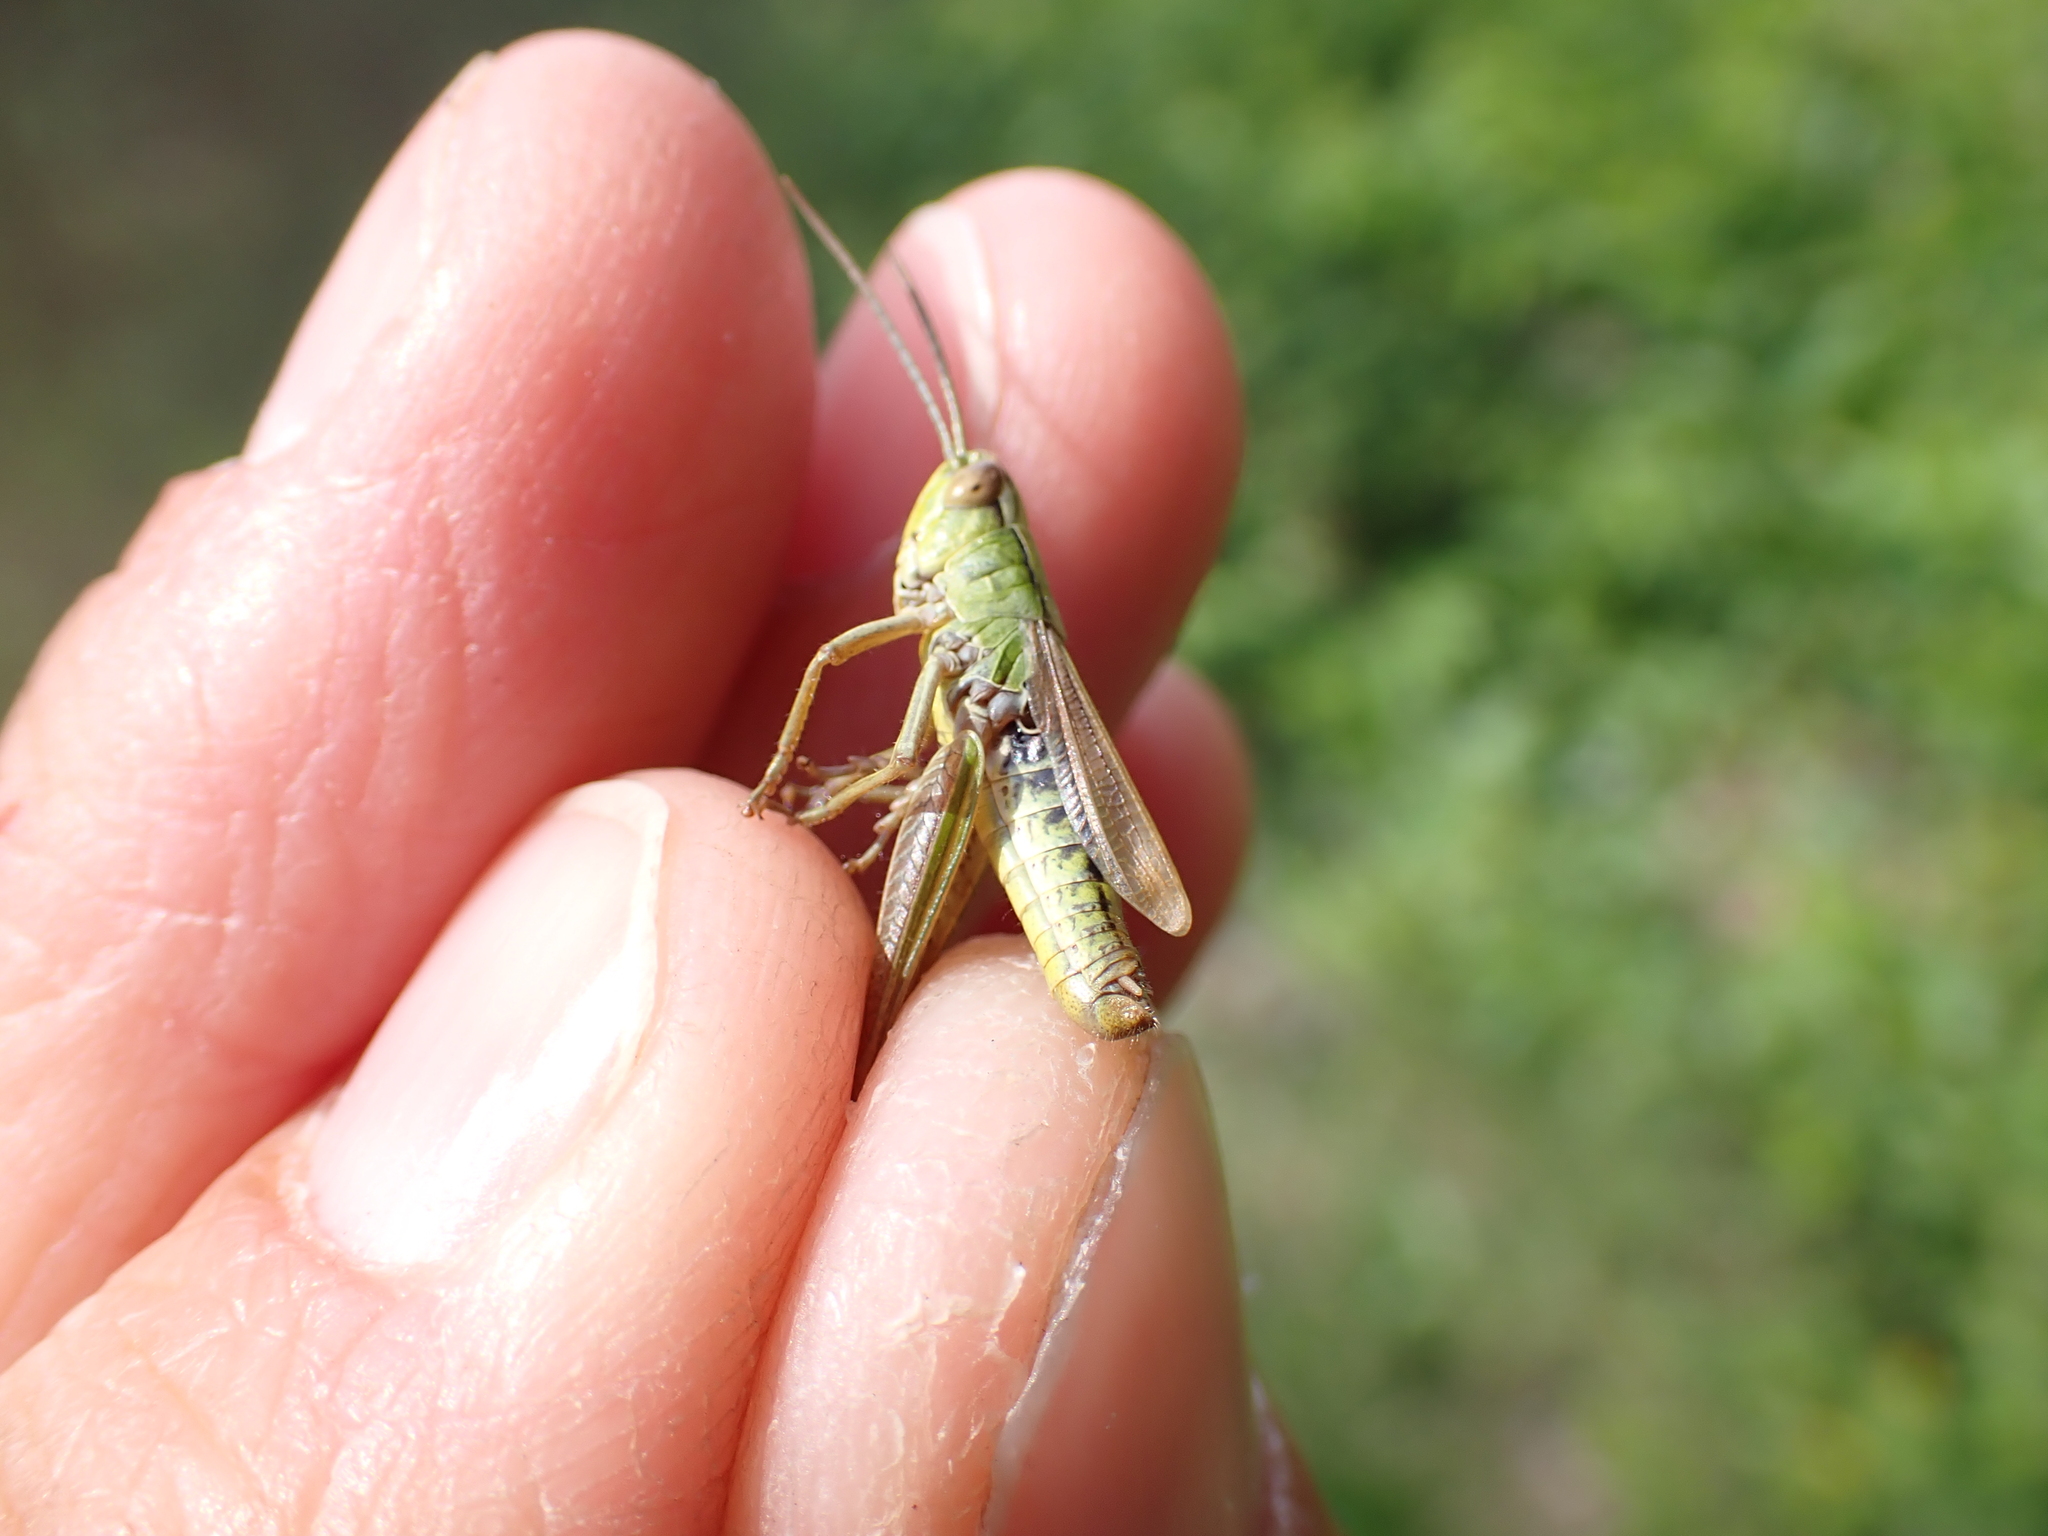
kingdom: Animalia
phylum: Arthropoda
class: Insecta
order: Orthoptera
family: Acrididae
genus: Pseudochorthippus
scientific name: Pseudochorthippus parallelus
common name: Meadow grasshopper
